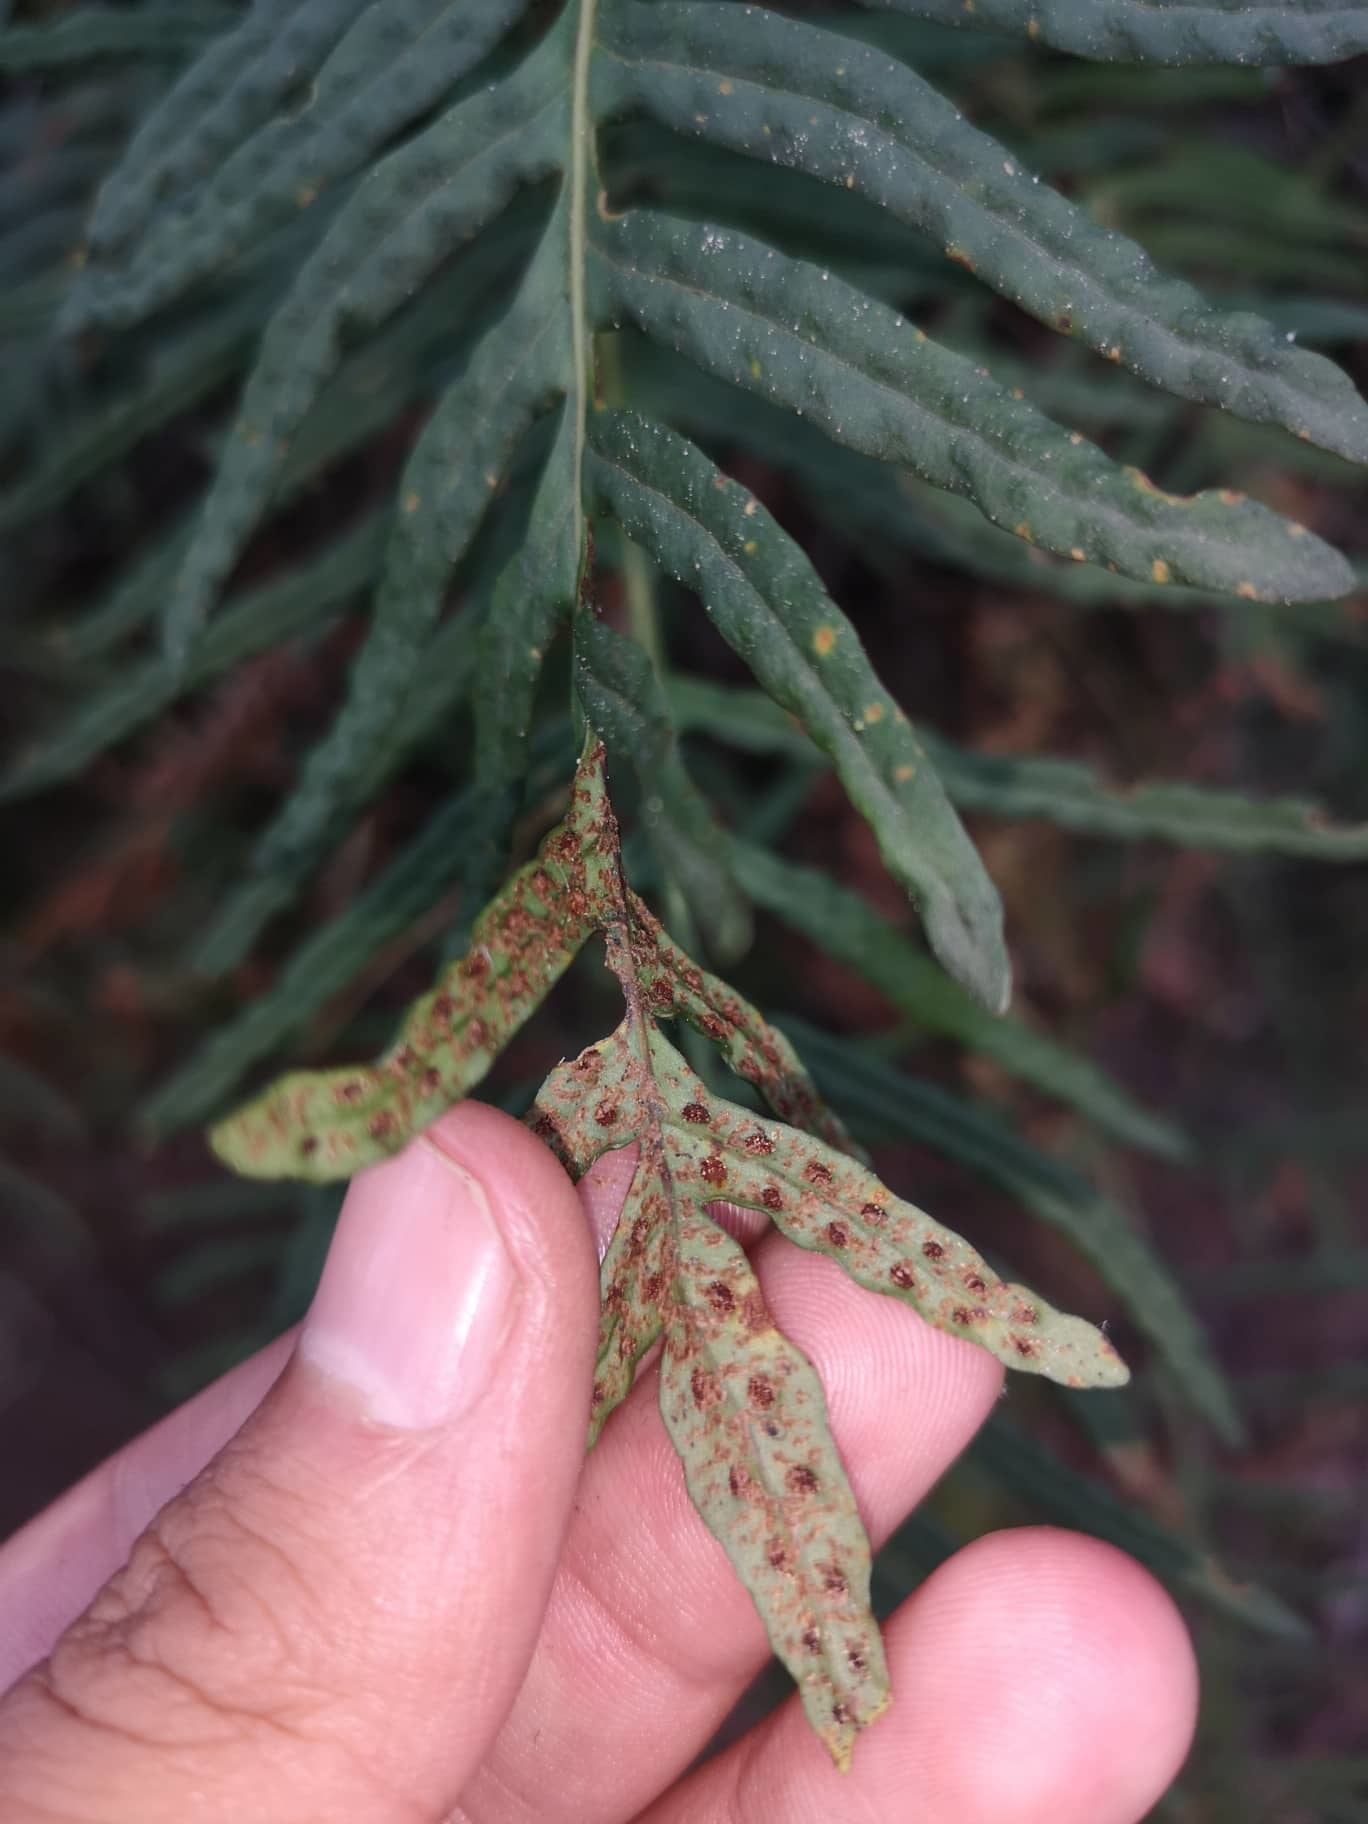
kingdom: Plantae
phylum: Tracheophyta
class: Polypodiopsida
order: Polypodiales
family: Polypodiaceae
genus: Pleopeltis
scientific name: Pleopeltis orientalis
